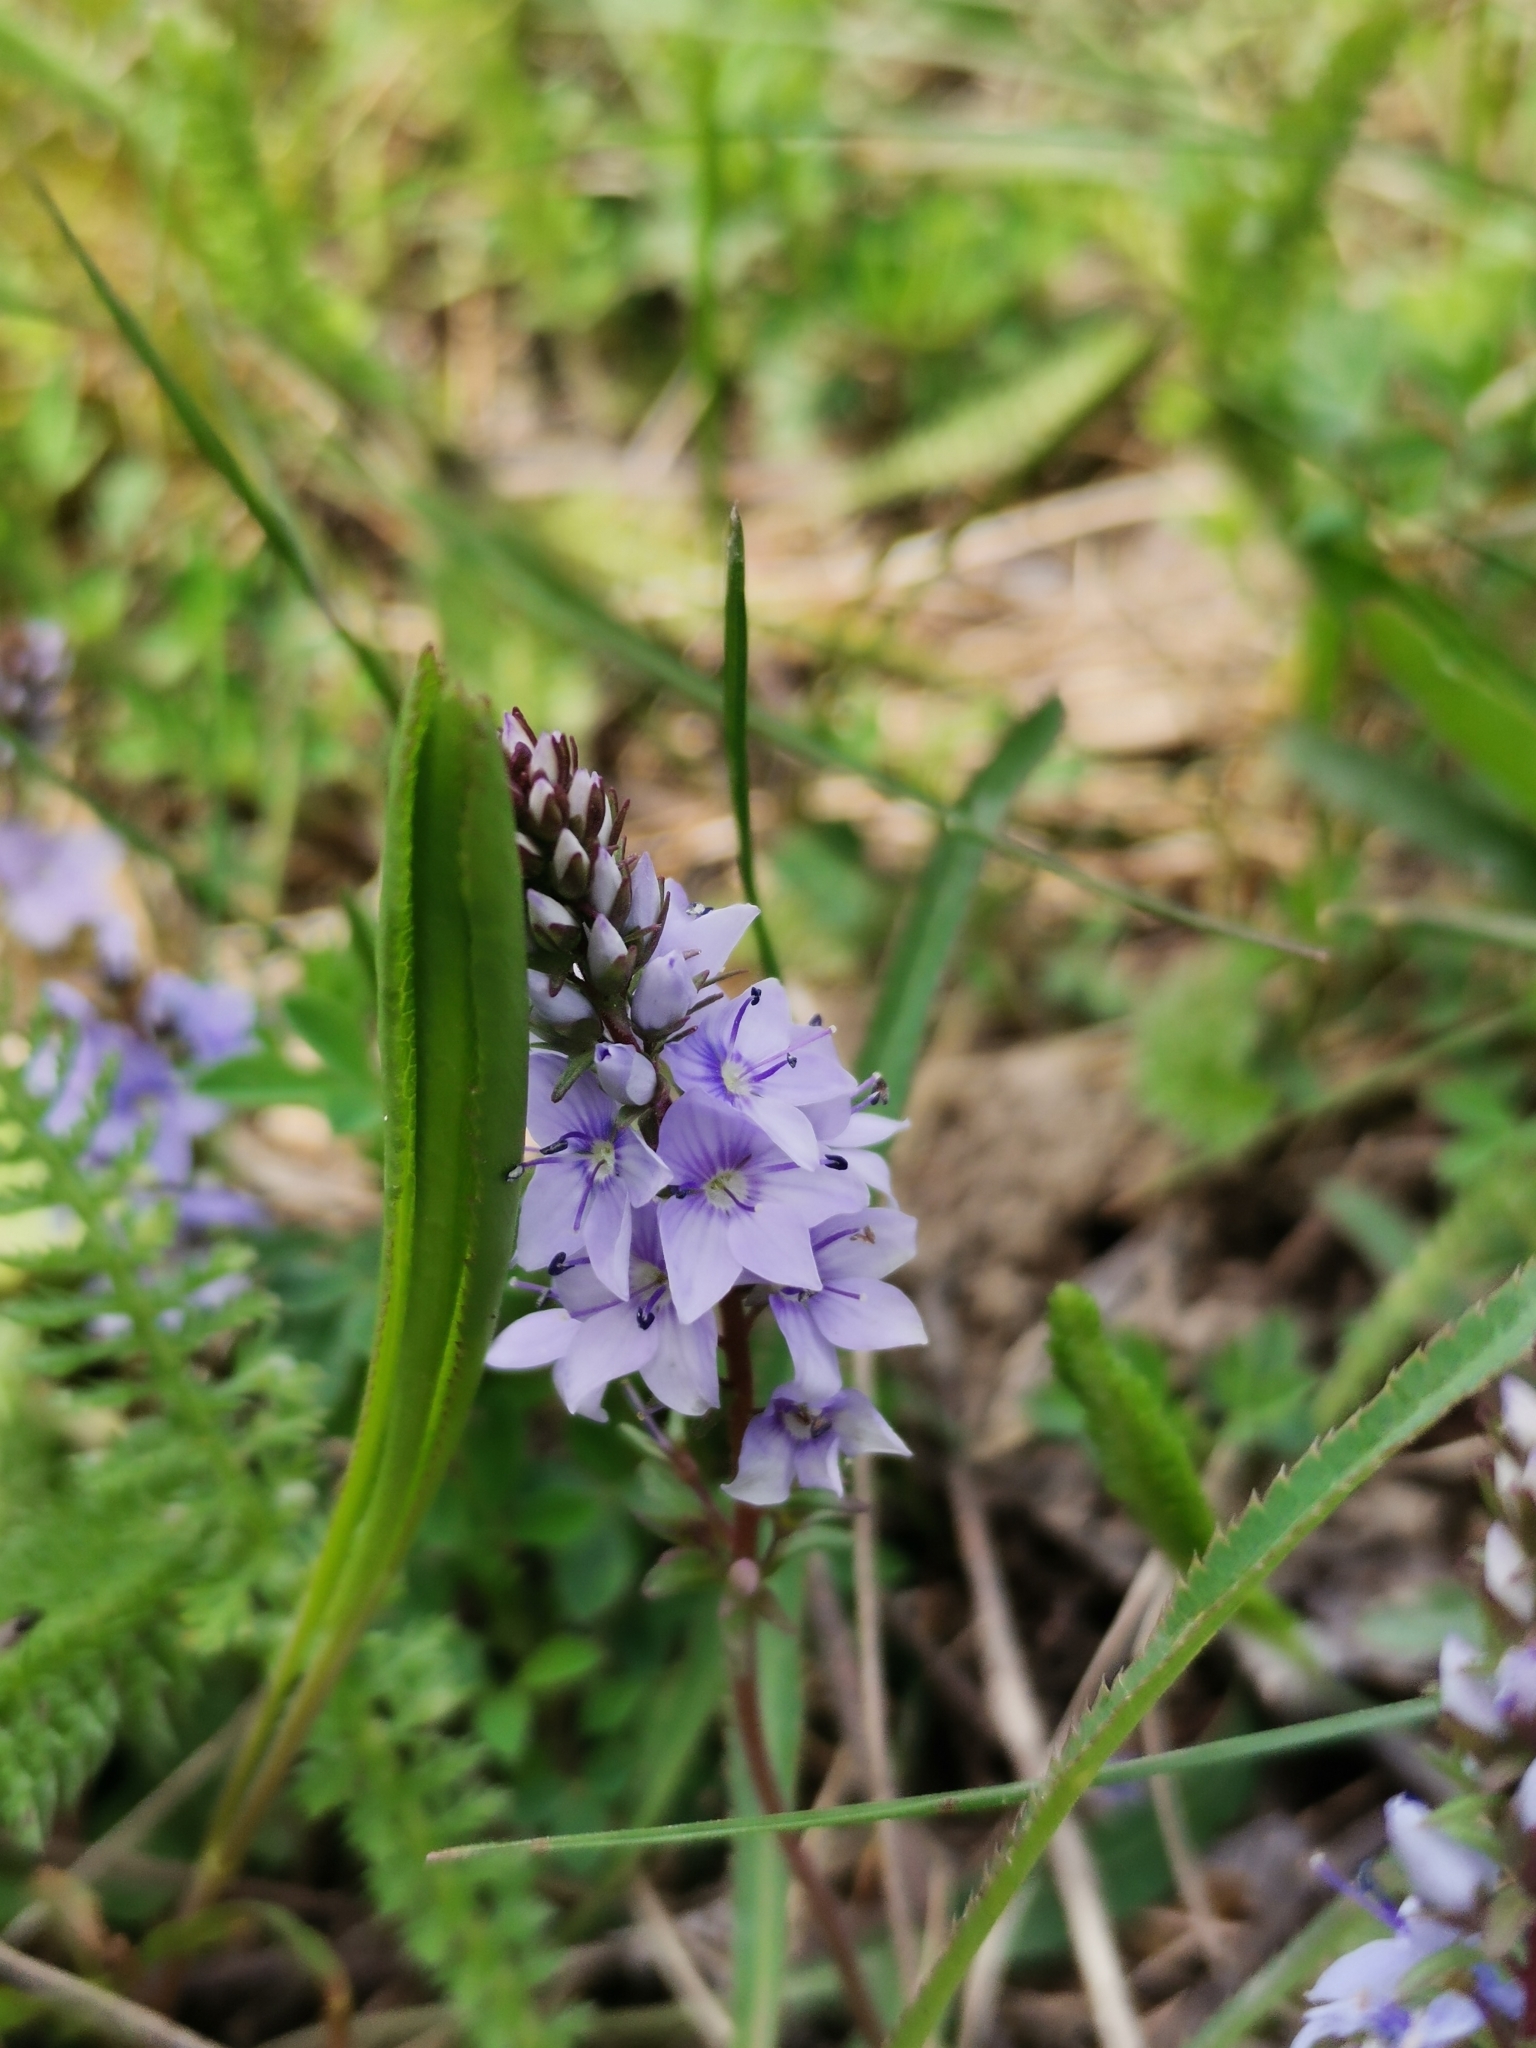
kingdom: Plantae
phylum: Tracheophyta
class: Magnoliopsida
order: Lamiales
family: Plantaginaceae
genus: Veronica
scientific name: Veronica prostrata
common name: Prostrate speedwell
